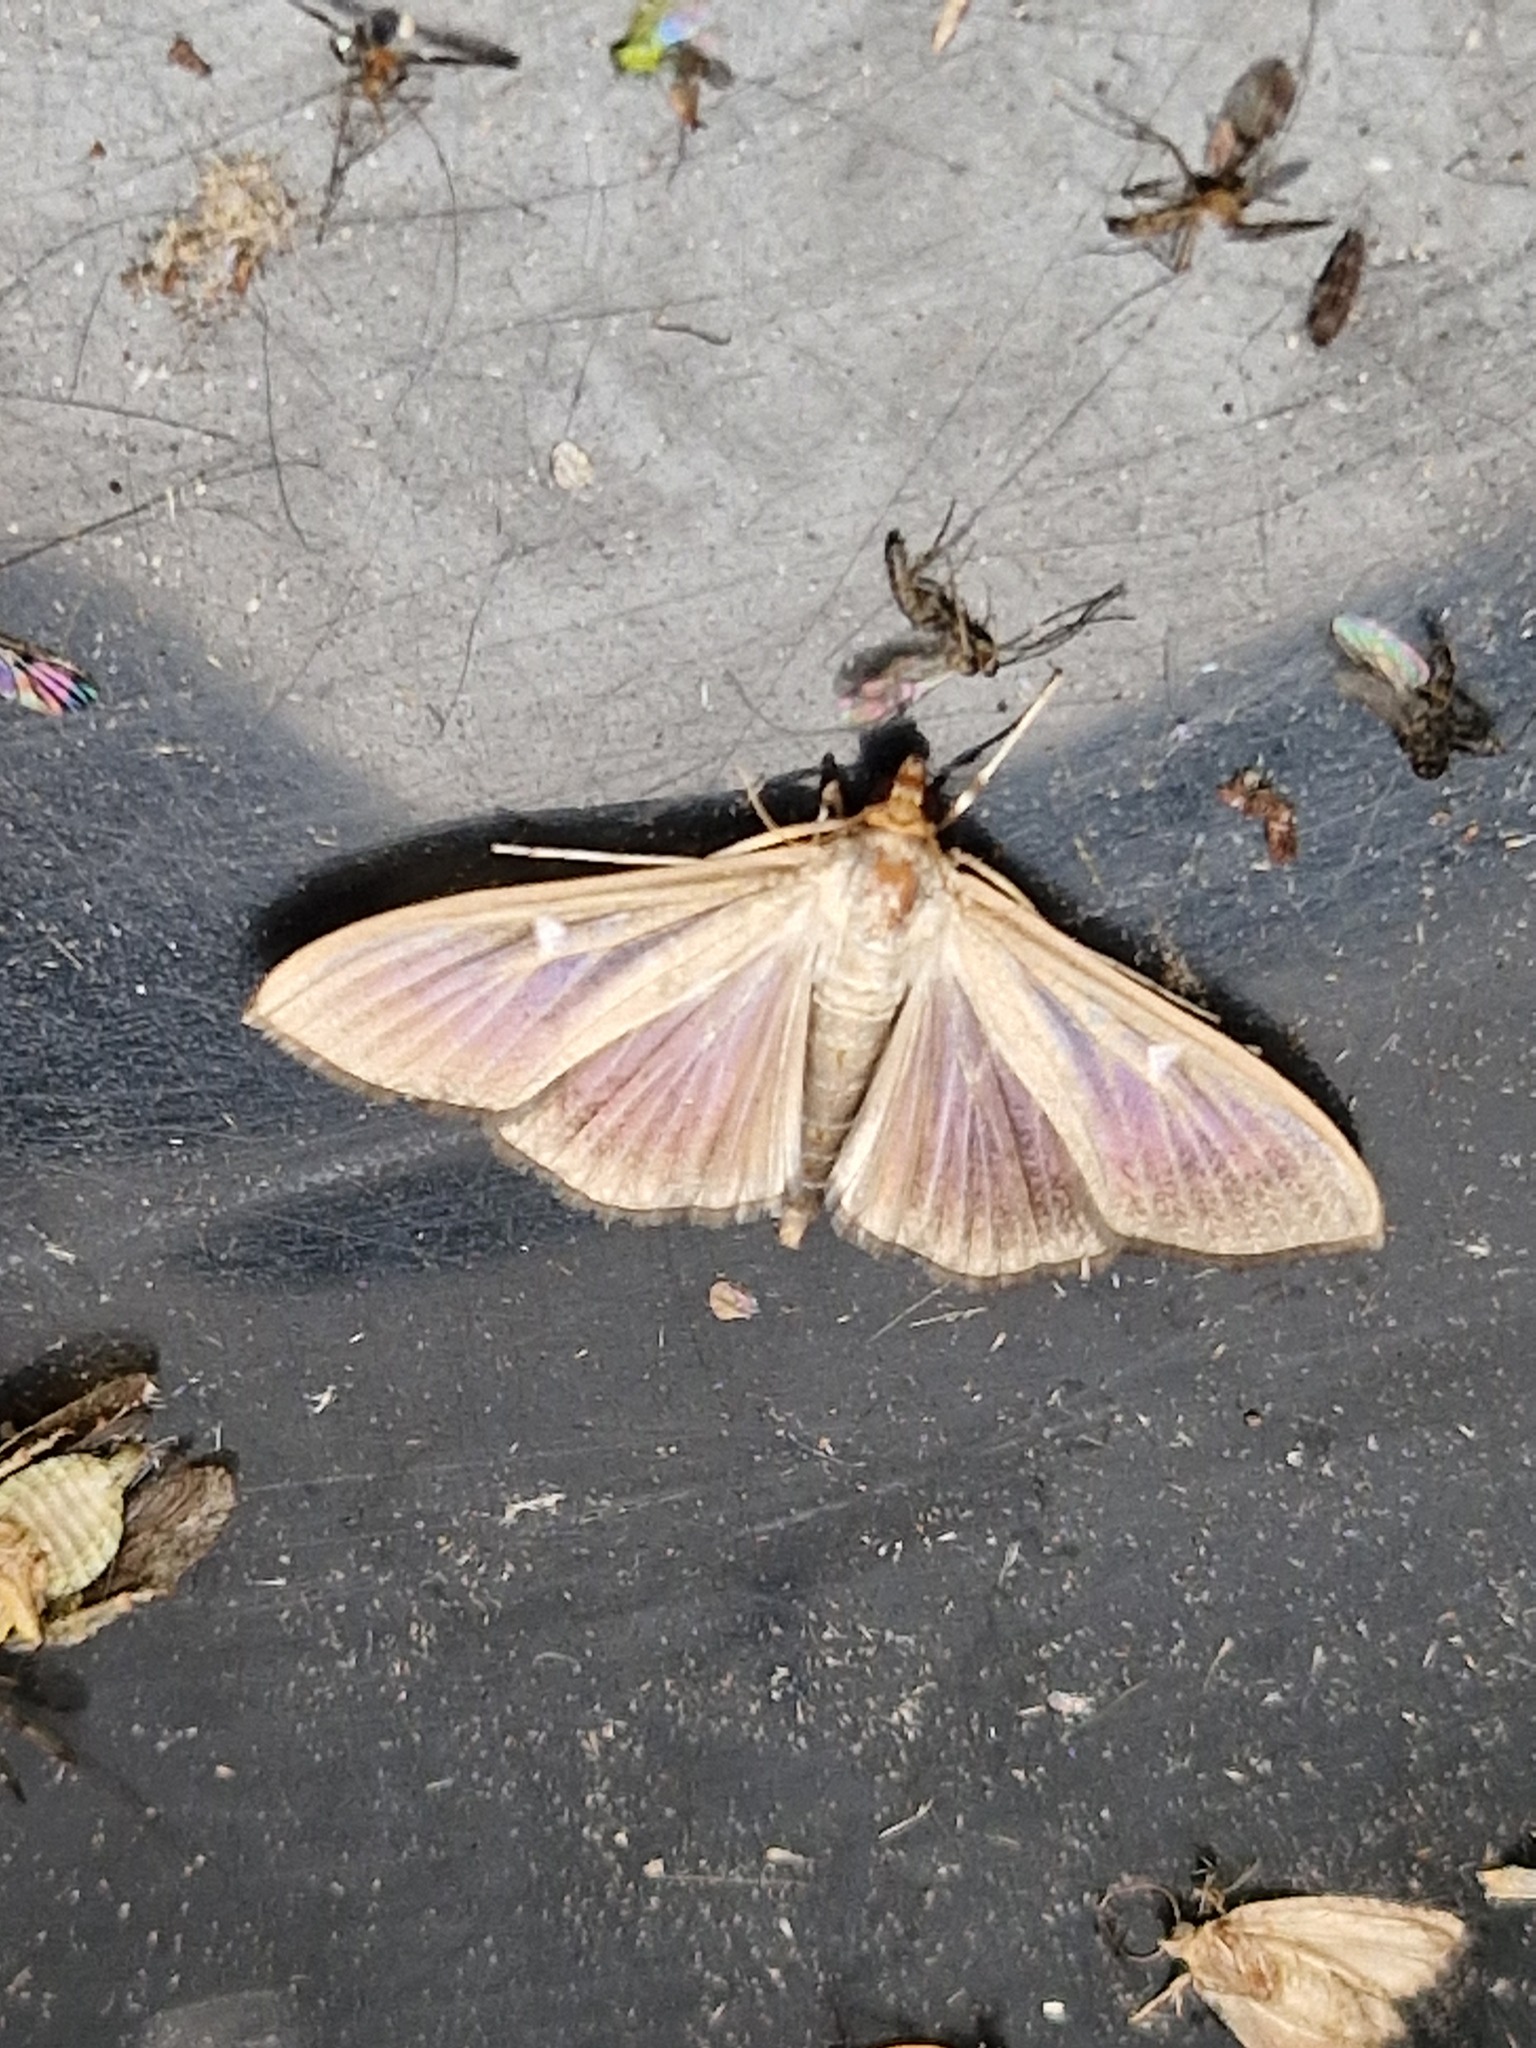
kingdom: Animalia
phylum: Arthropoda
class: Insecta
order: Lepidoptera
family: Crambidae
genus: Cydalima
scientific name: Cydalima perspectalis
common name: Box tree moth
